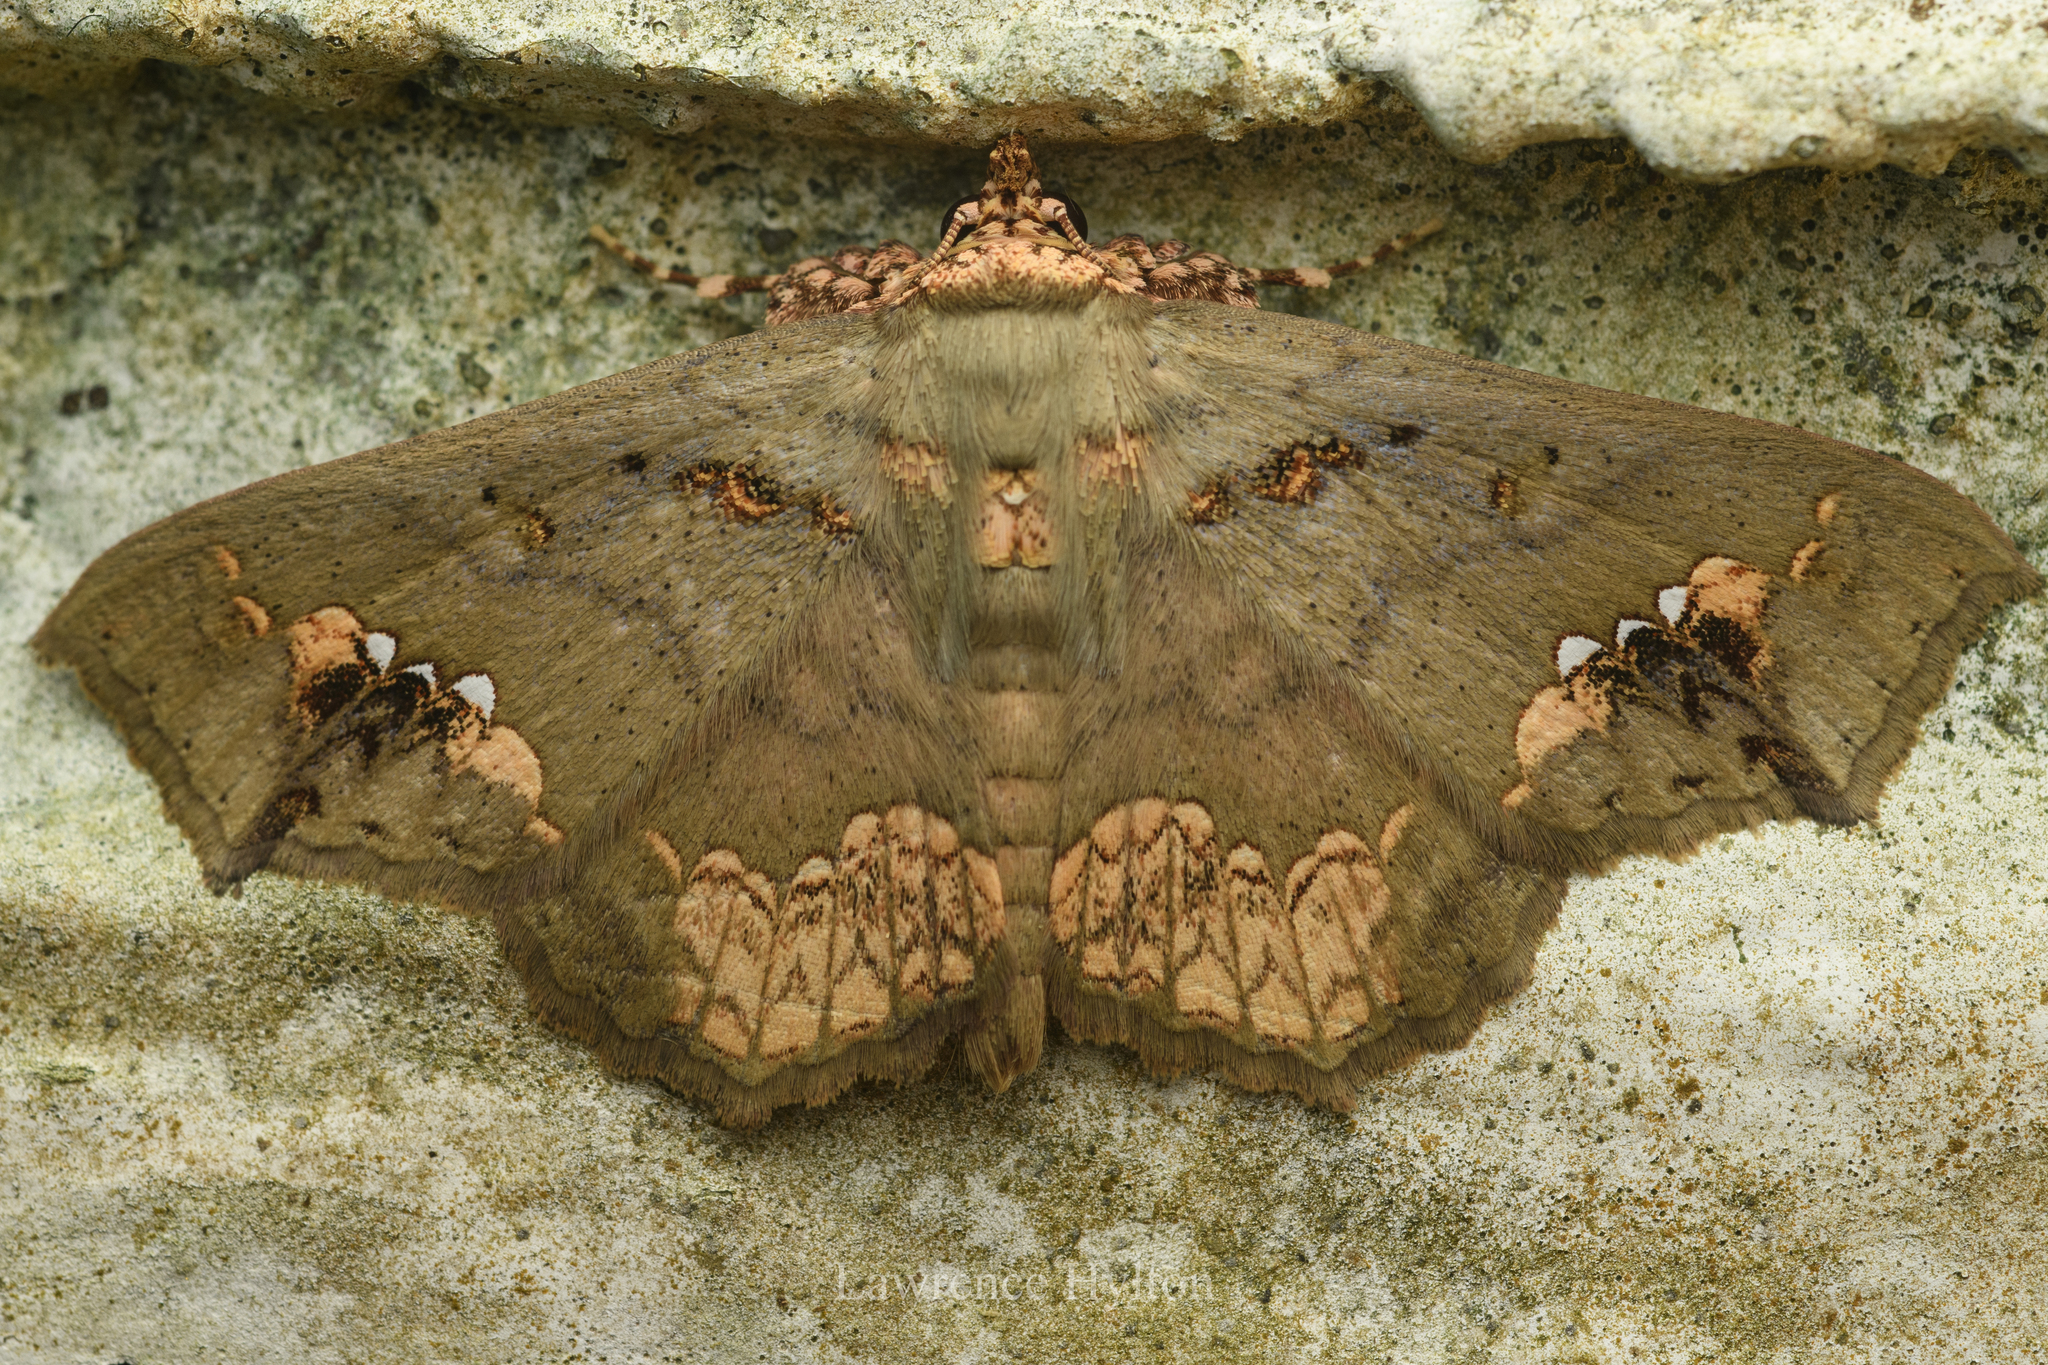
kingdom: Animalia
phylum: Arthropoda
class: Insecta
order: Lepidoptera
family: Erebidae
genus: Lopharthrum
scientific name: Lopharthrum comprimens
